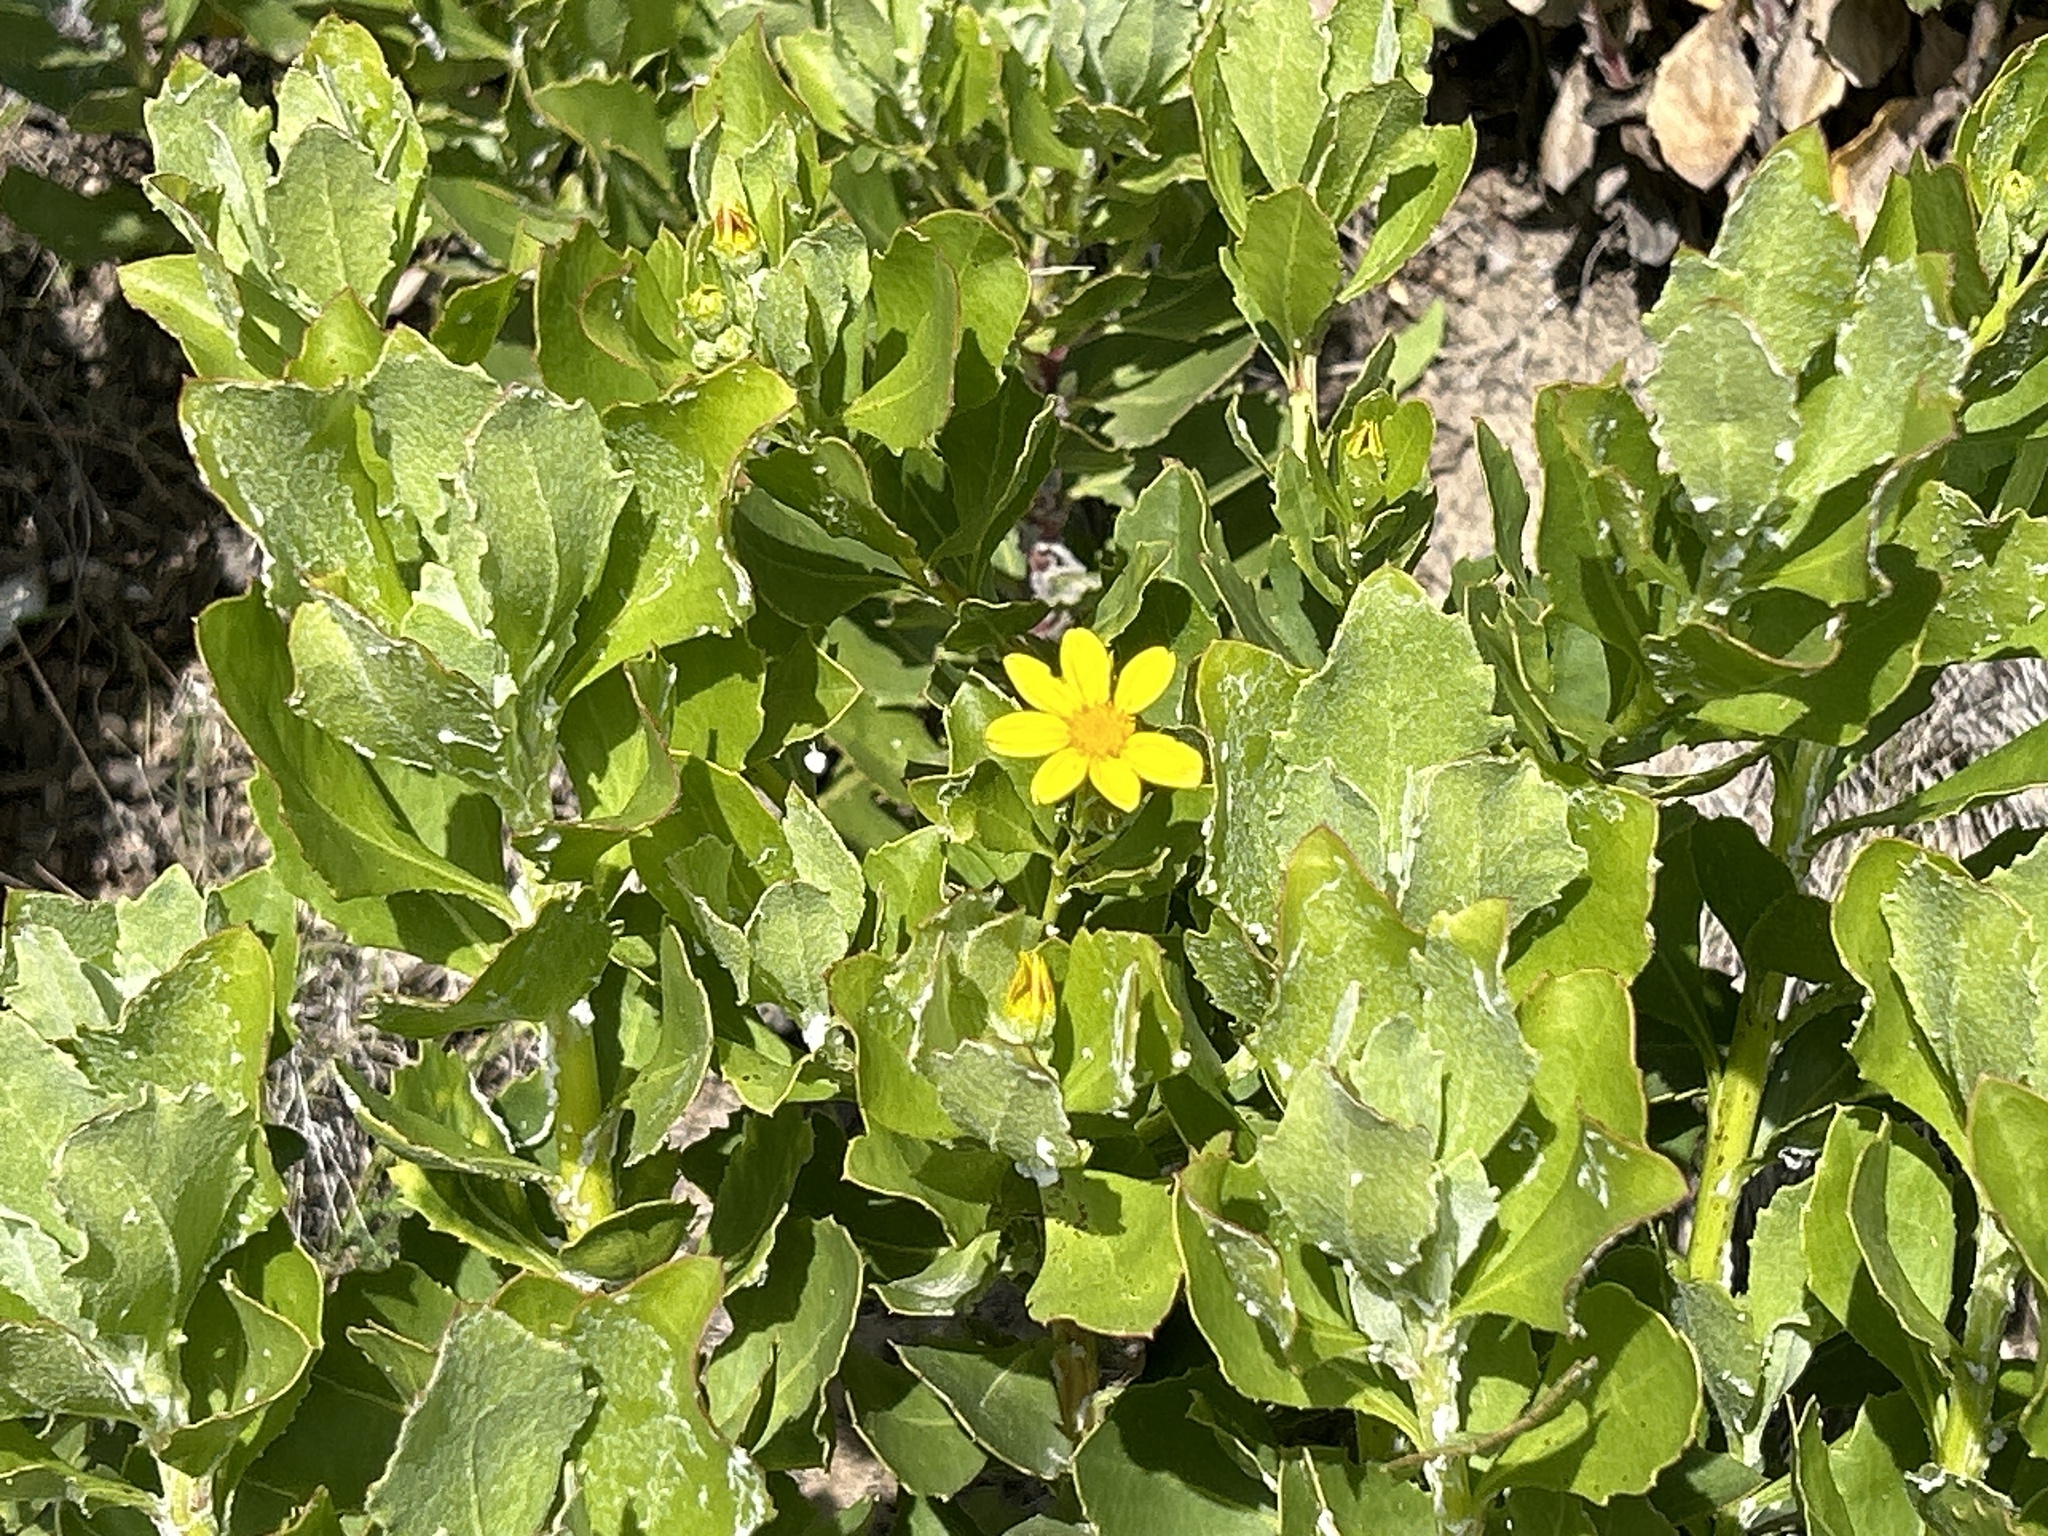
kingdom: Plantae
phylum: Tracheophyta
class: Magnoliopsida
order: Asterales
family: Asteraceae
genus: Osteospermum
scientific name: Osteospermum moniliferum
